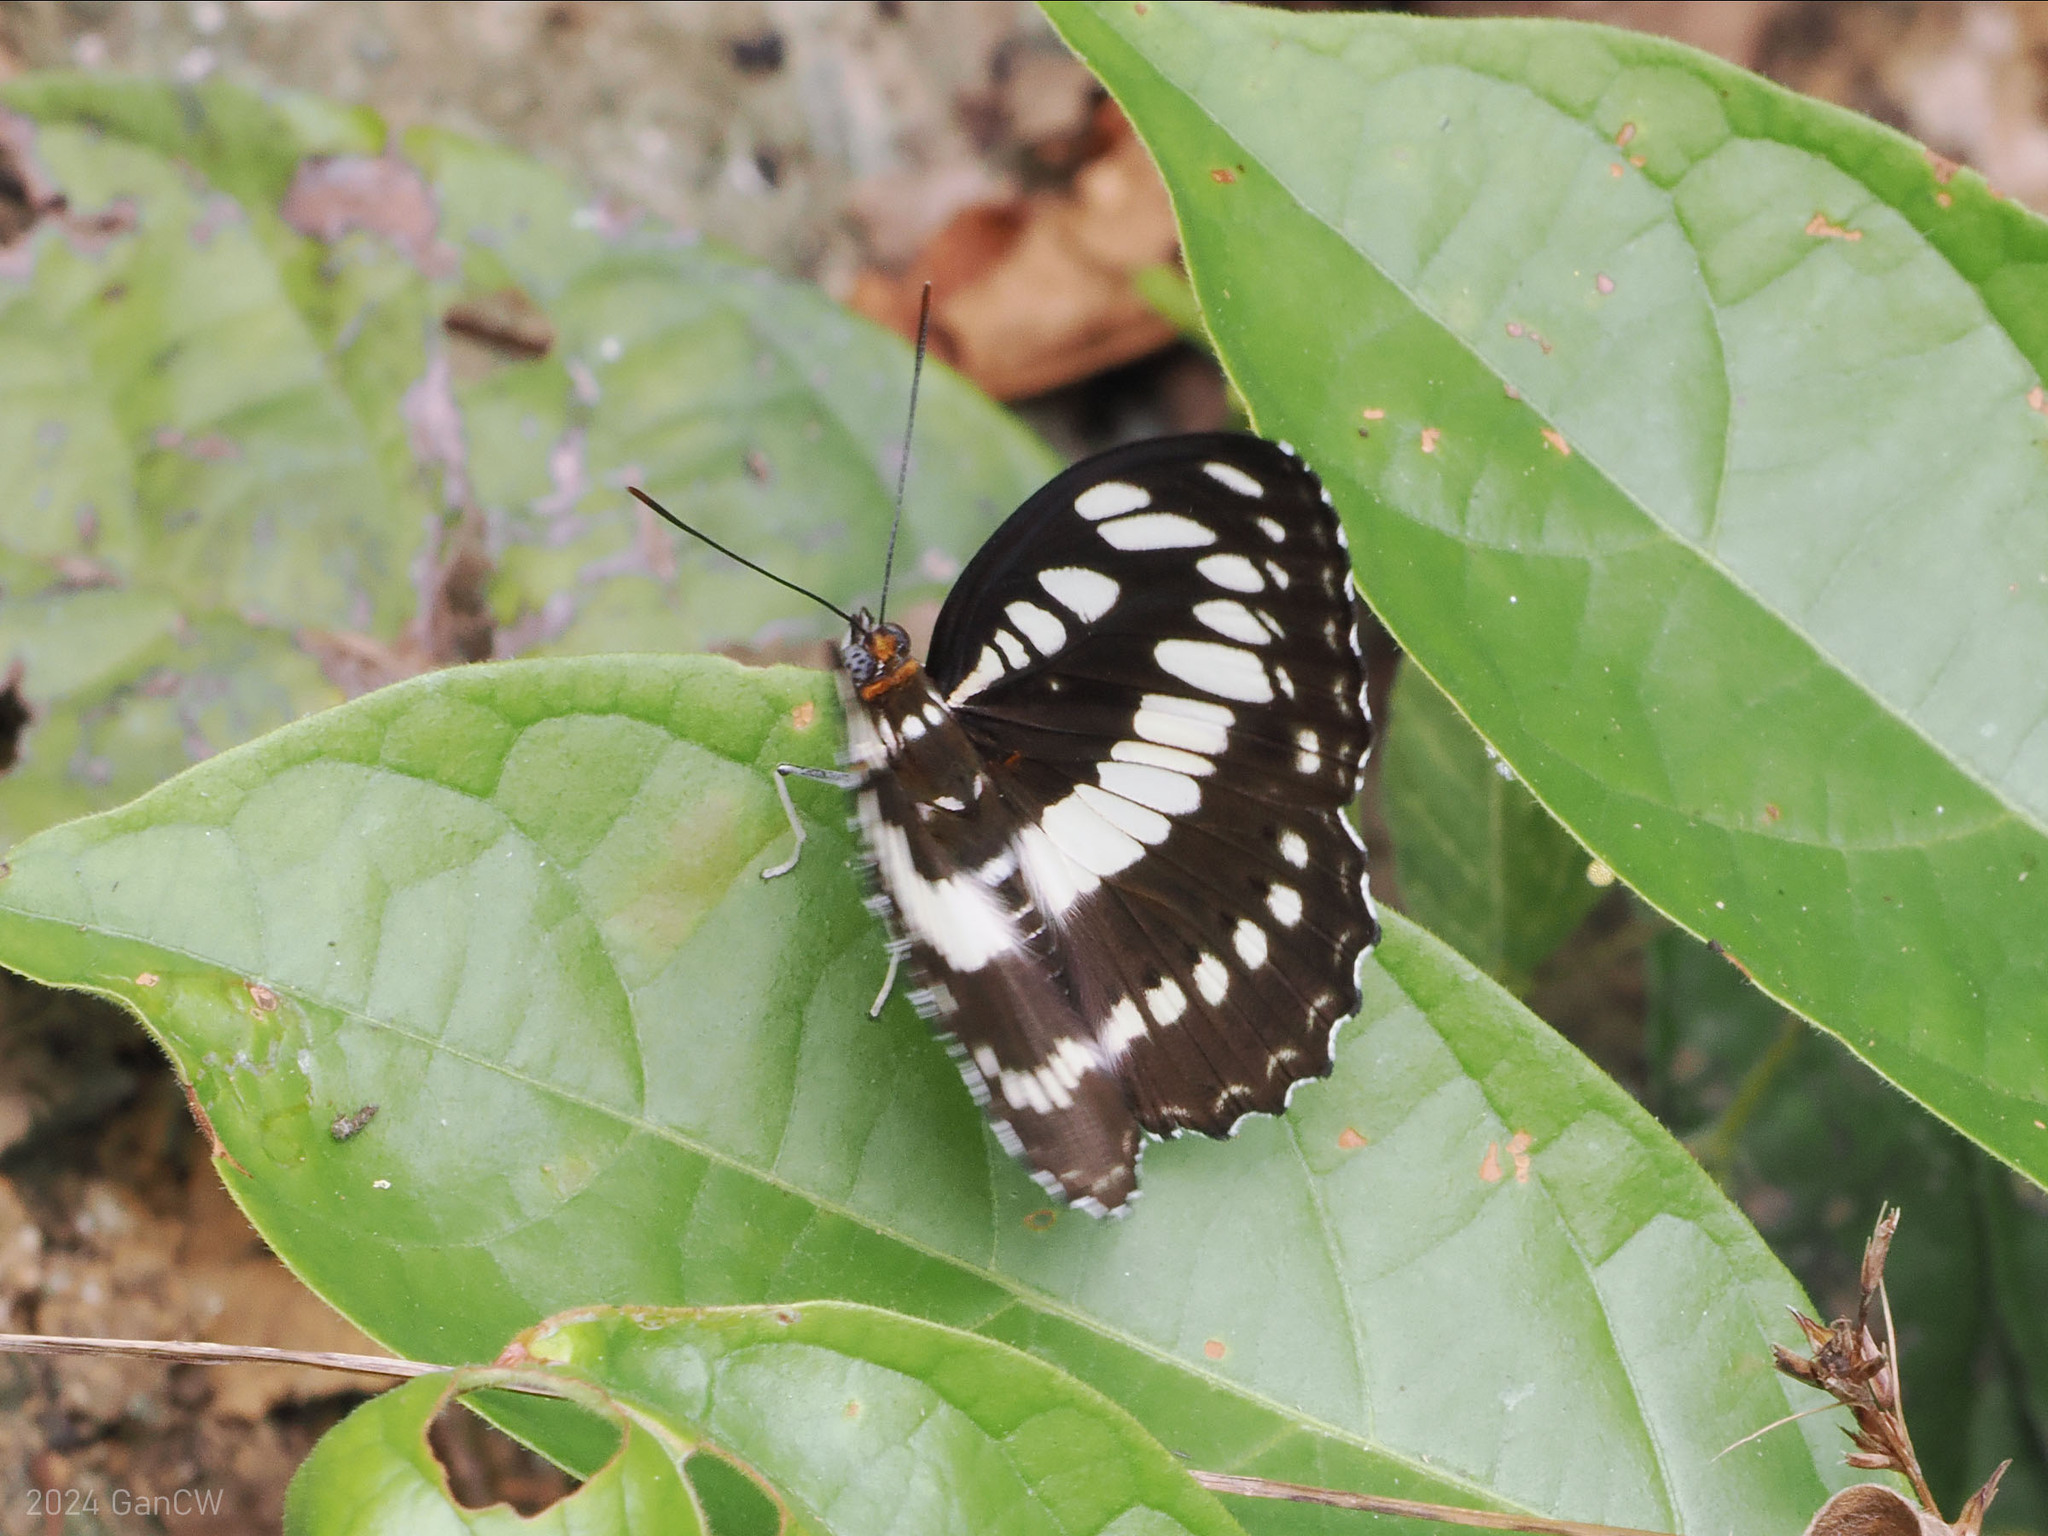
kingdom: Animalia
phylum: Arthropoda
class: Insecta
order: Lepidoptera
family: Nymphalidae
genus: Parathyma
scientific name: Parathyma perius
